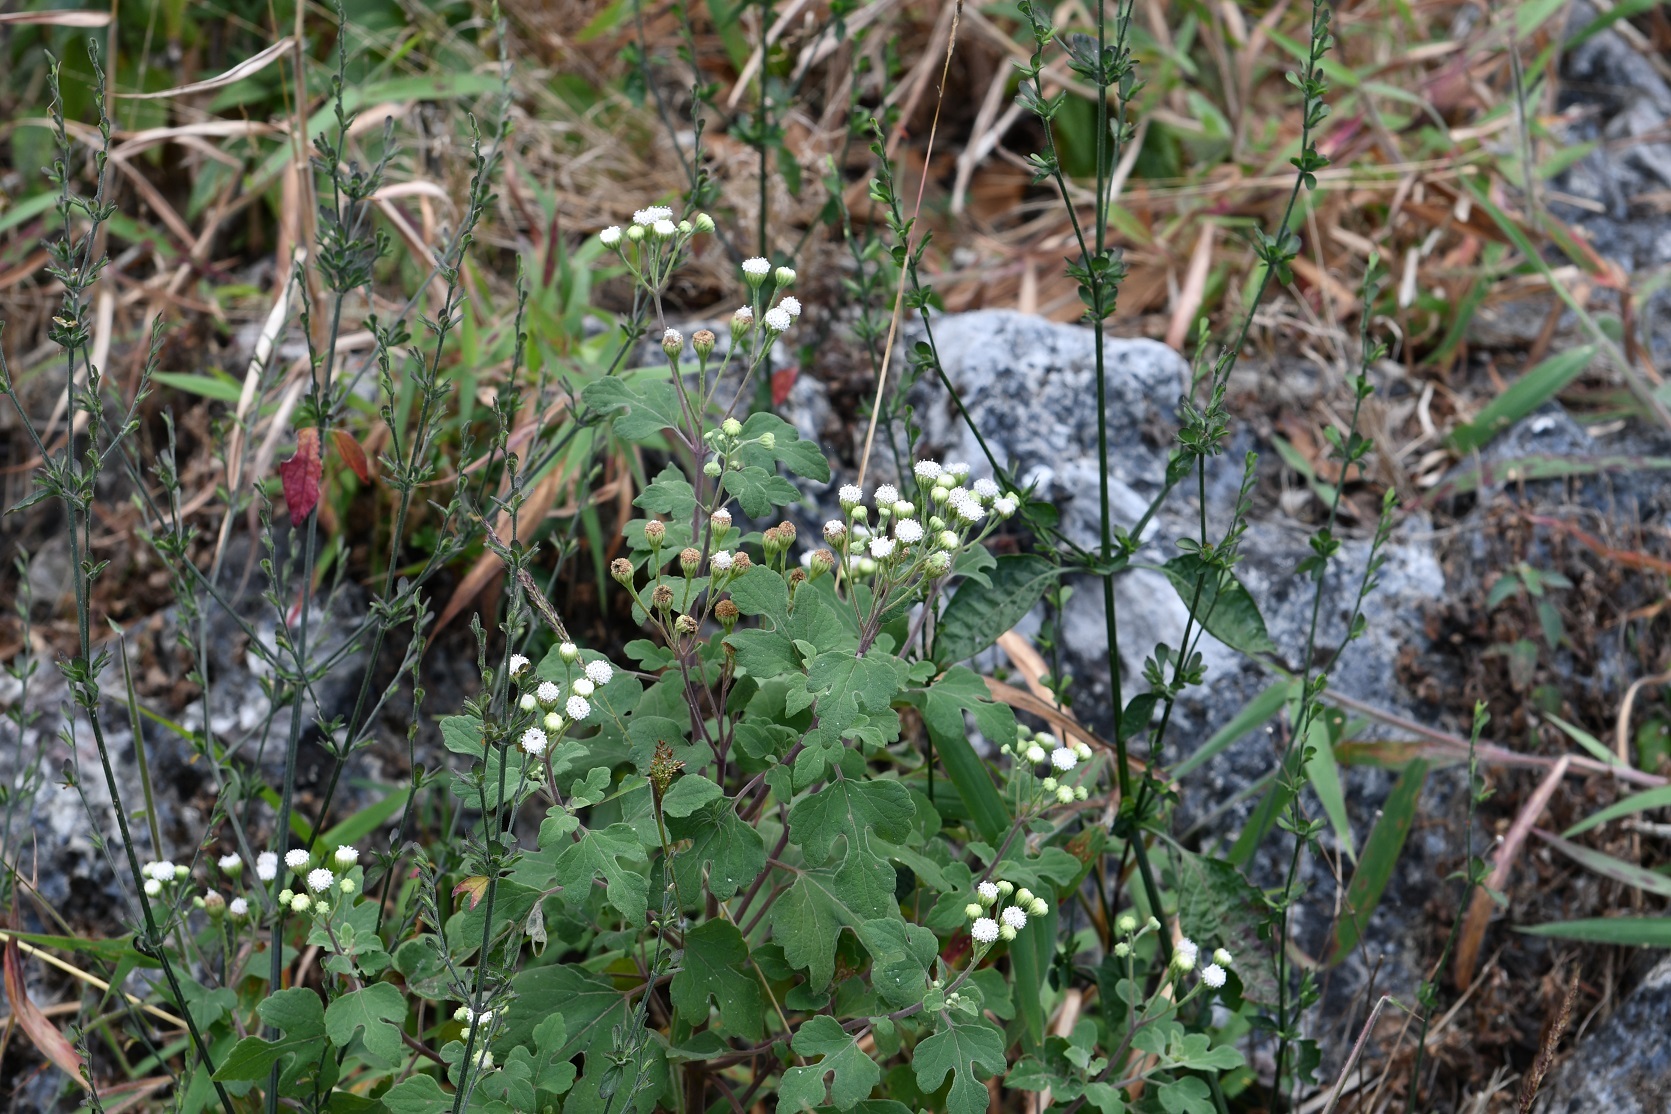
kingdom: Plantae
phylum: Tracheophyta
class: Magnoliopsida
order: Asterales
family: Asteraceae
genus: Loxothysanus
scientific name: Loxothysanus sinuatus
